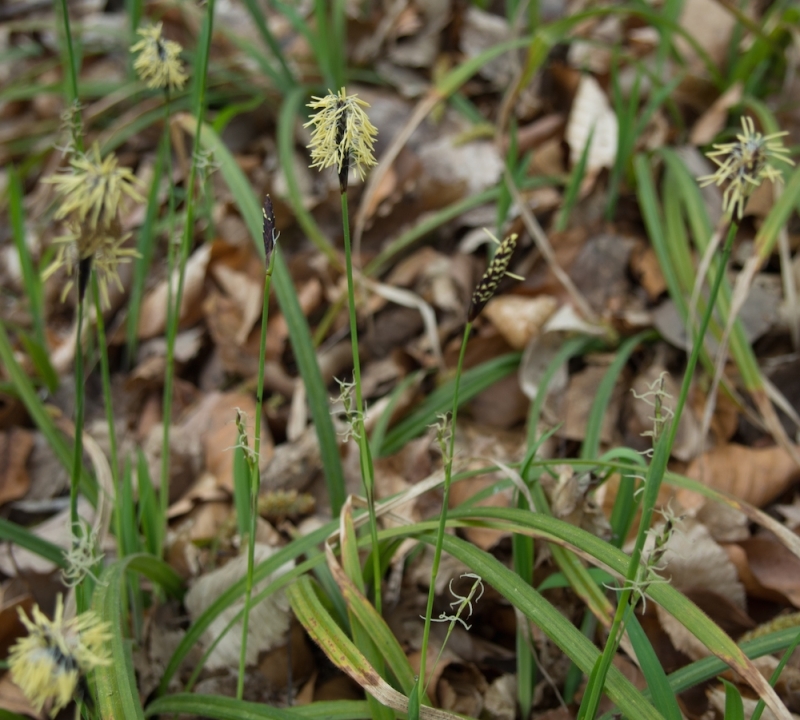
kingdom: Plantae
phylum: Tracheophyta
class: Liliopsida
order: Poales
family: Cyperaceae
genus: Carex
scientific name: Carex pilosa
